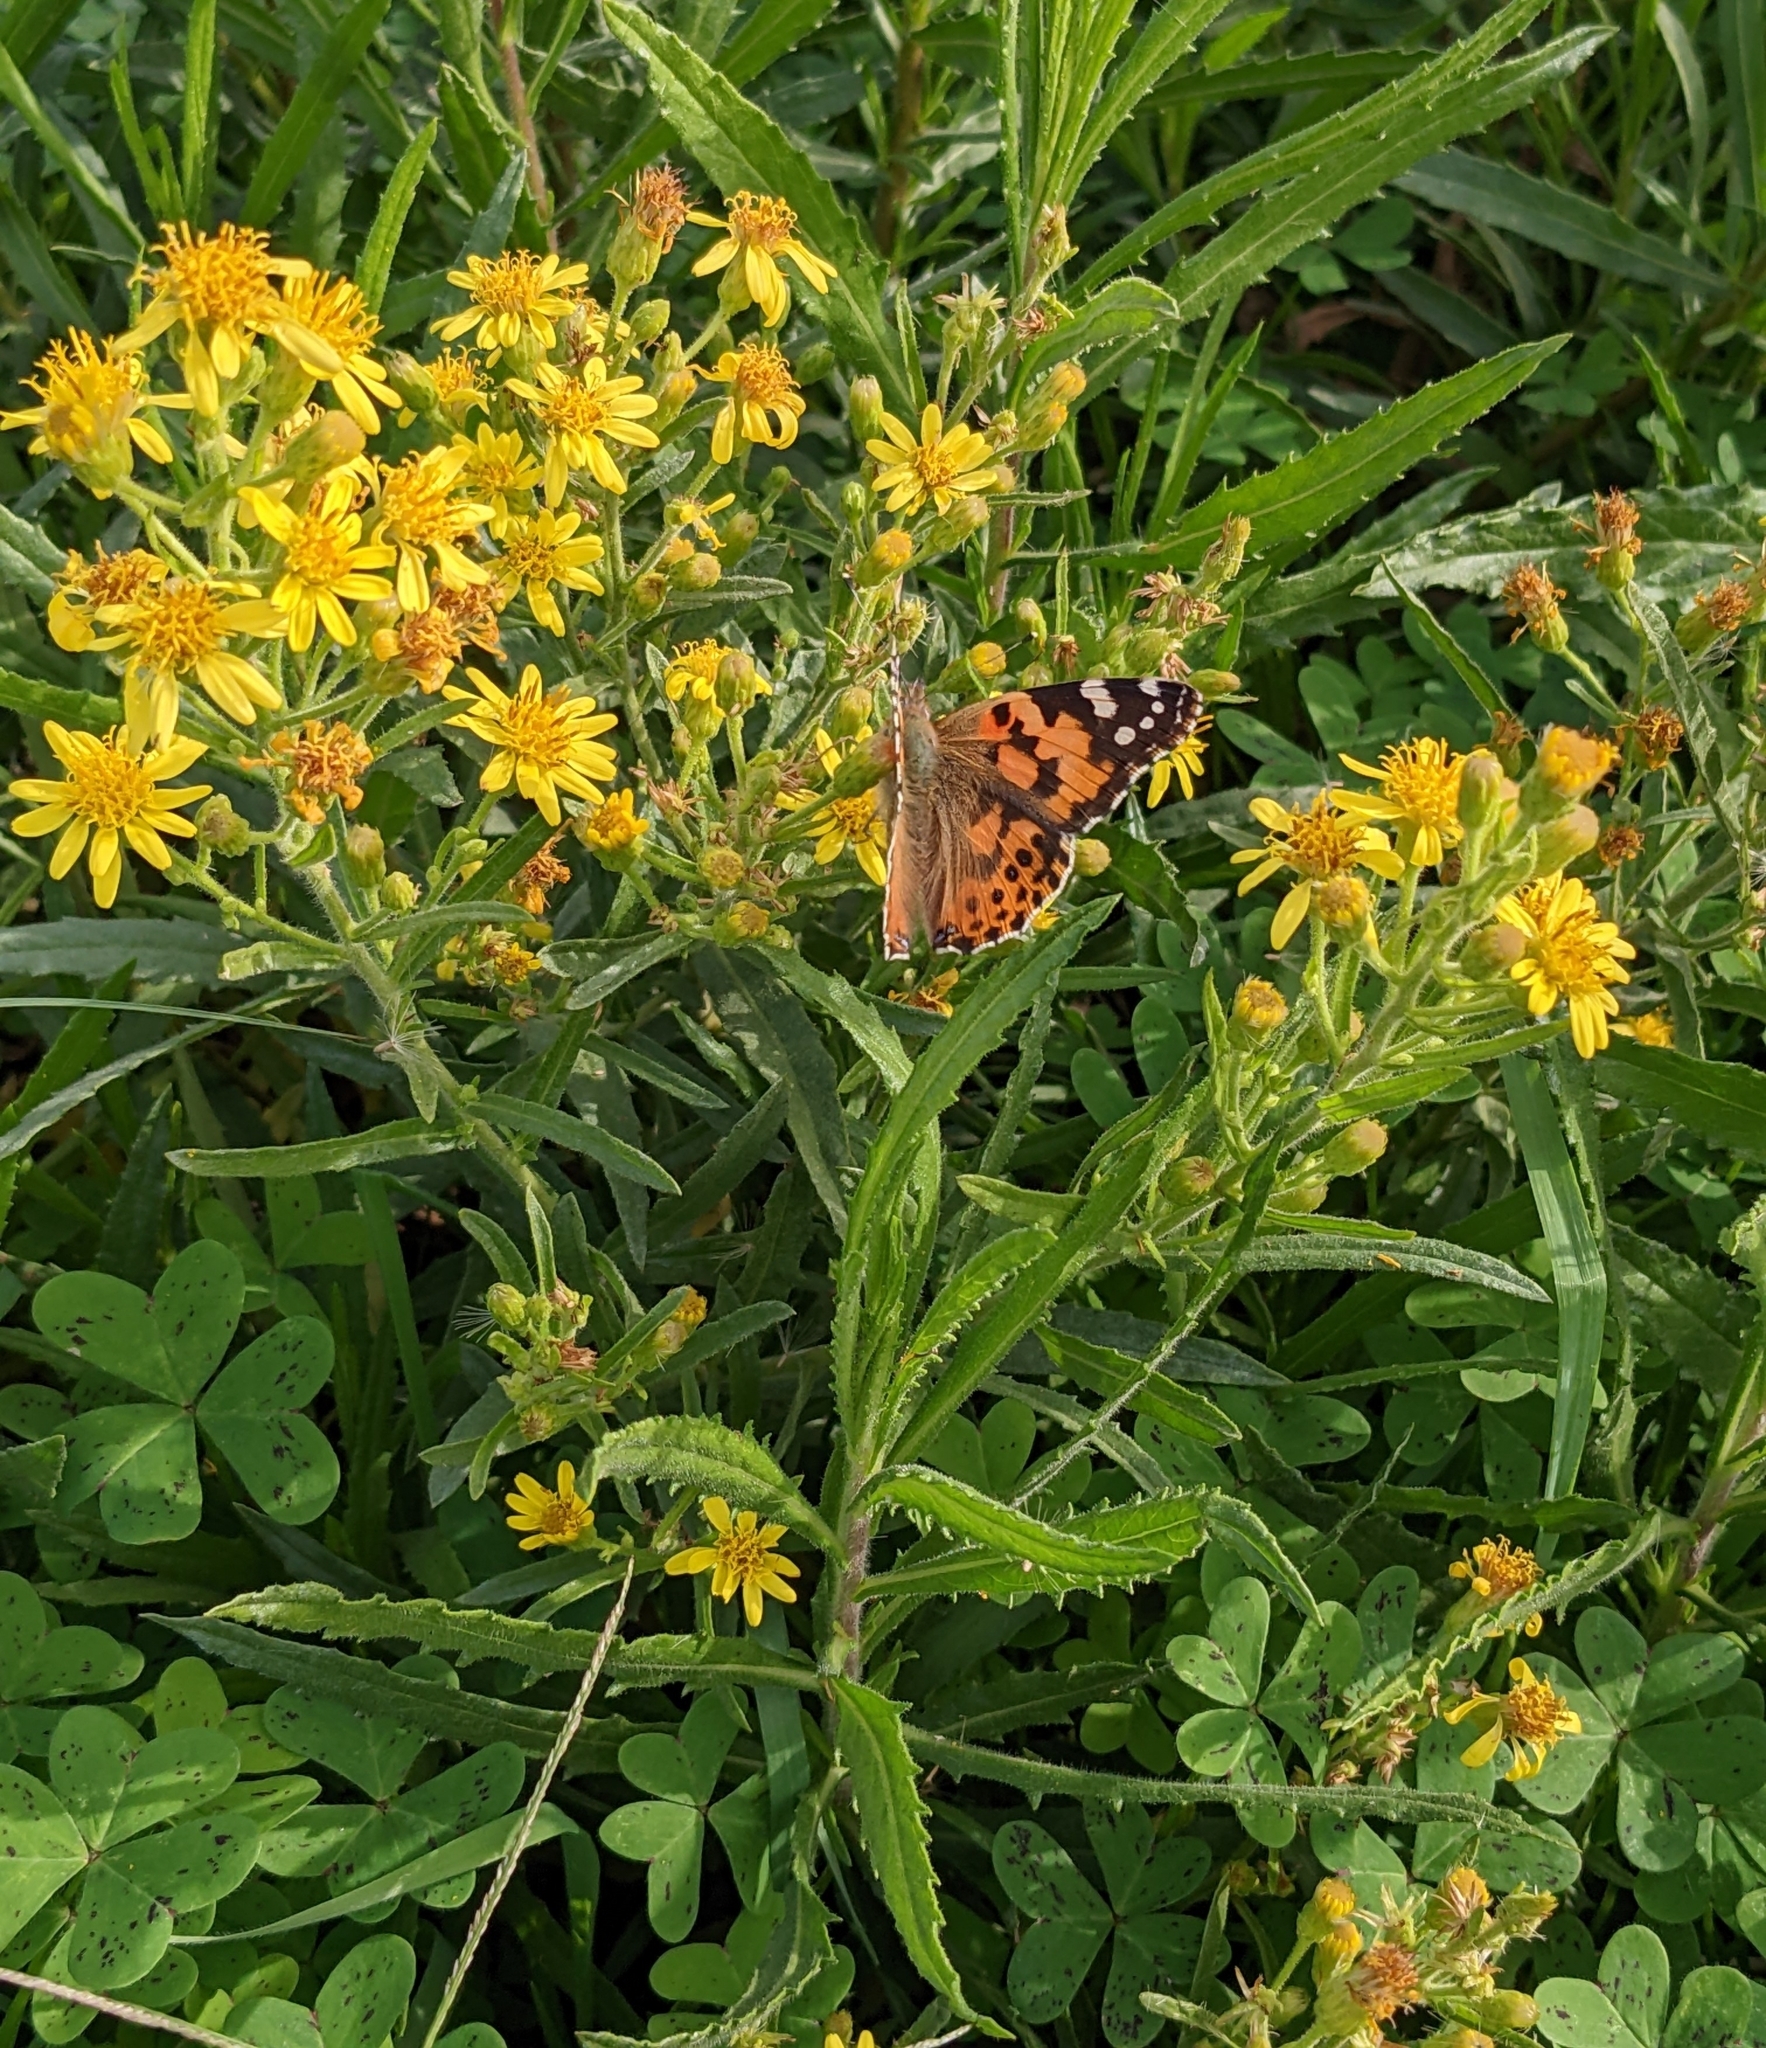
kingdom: Plantae
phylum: Tracheophyta
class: Magnoliopsida
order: Asterales
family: Asteraceae
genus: Dittrichia
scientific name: Dittrichia viscosa
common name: Woody fleabane
